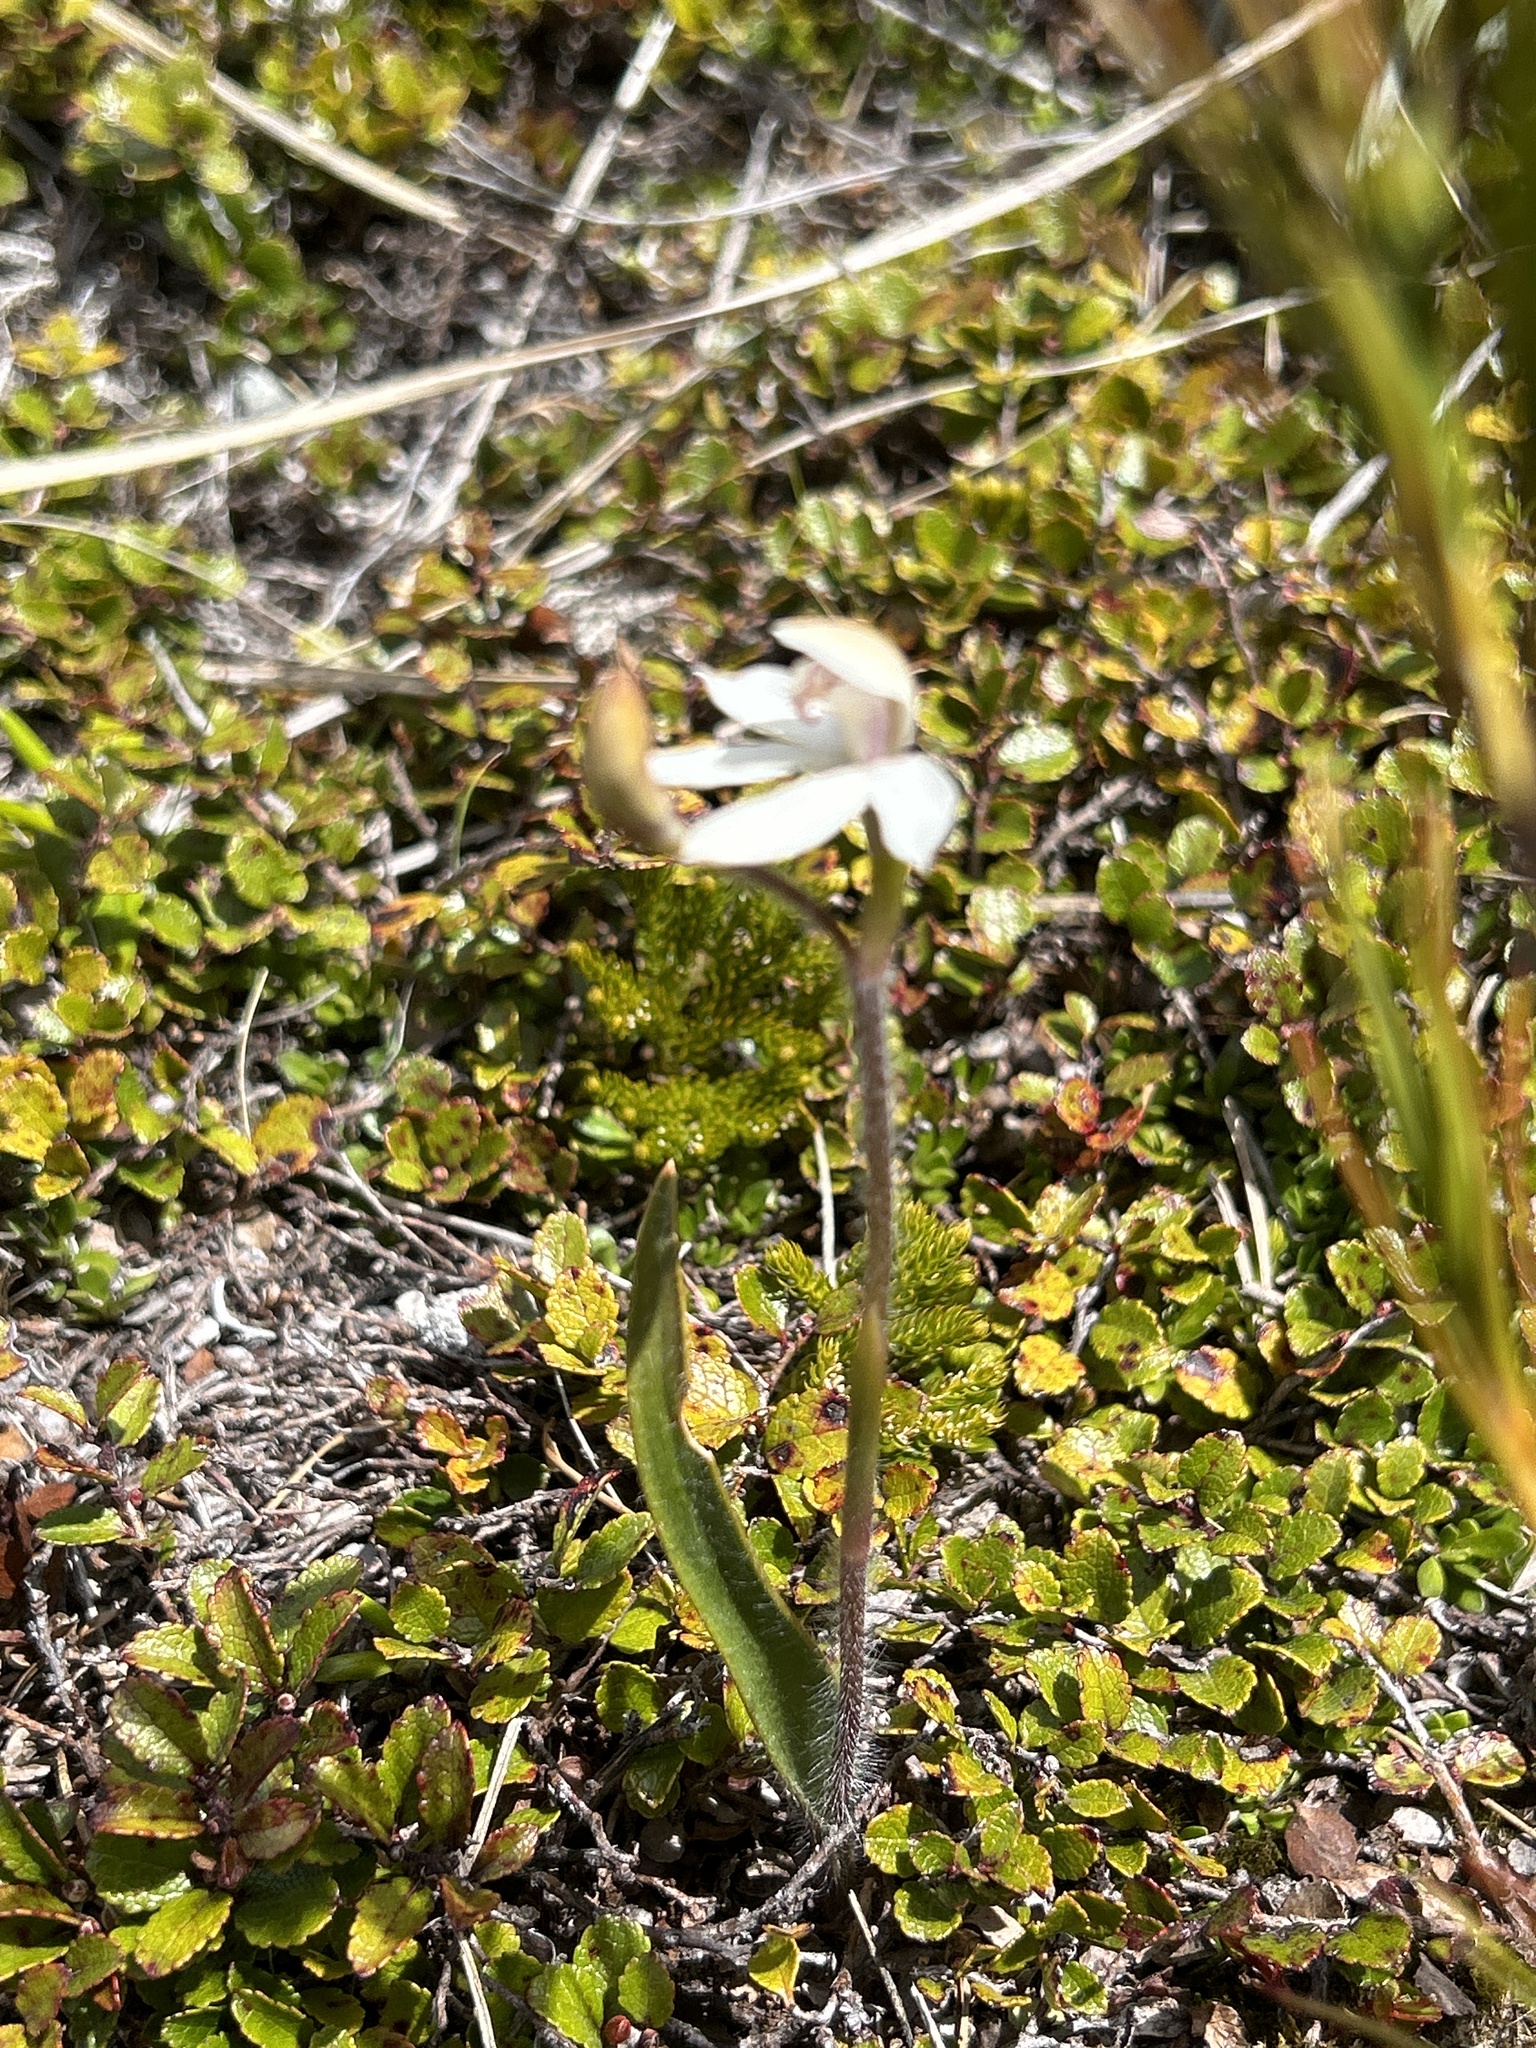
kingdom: Plantae
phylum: Tracheophyta
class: Liliopsida
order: Asparagales
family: Orchidaceae
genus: Caladenia
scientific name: Caladenia lyallii
